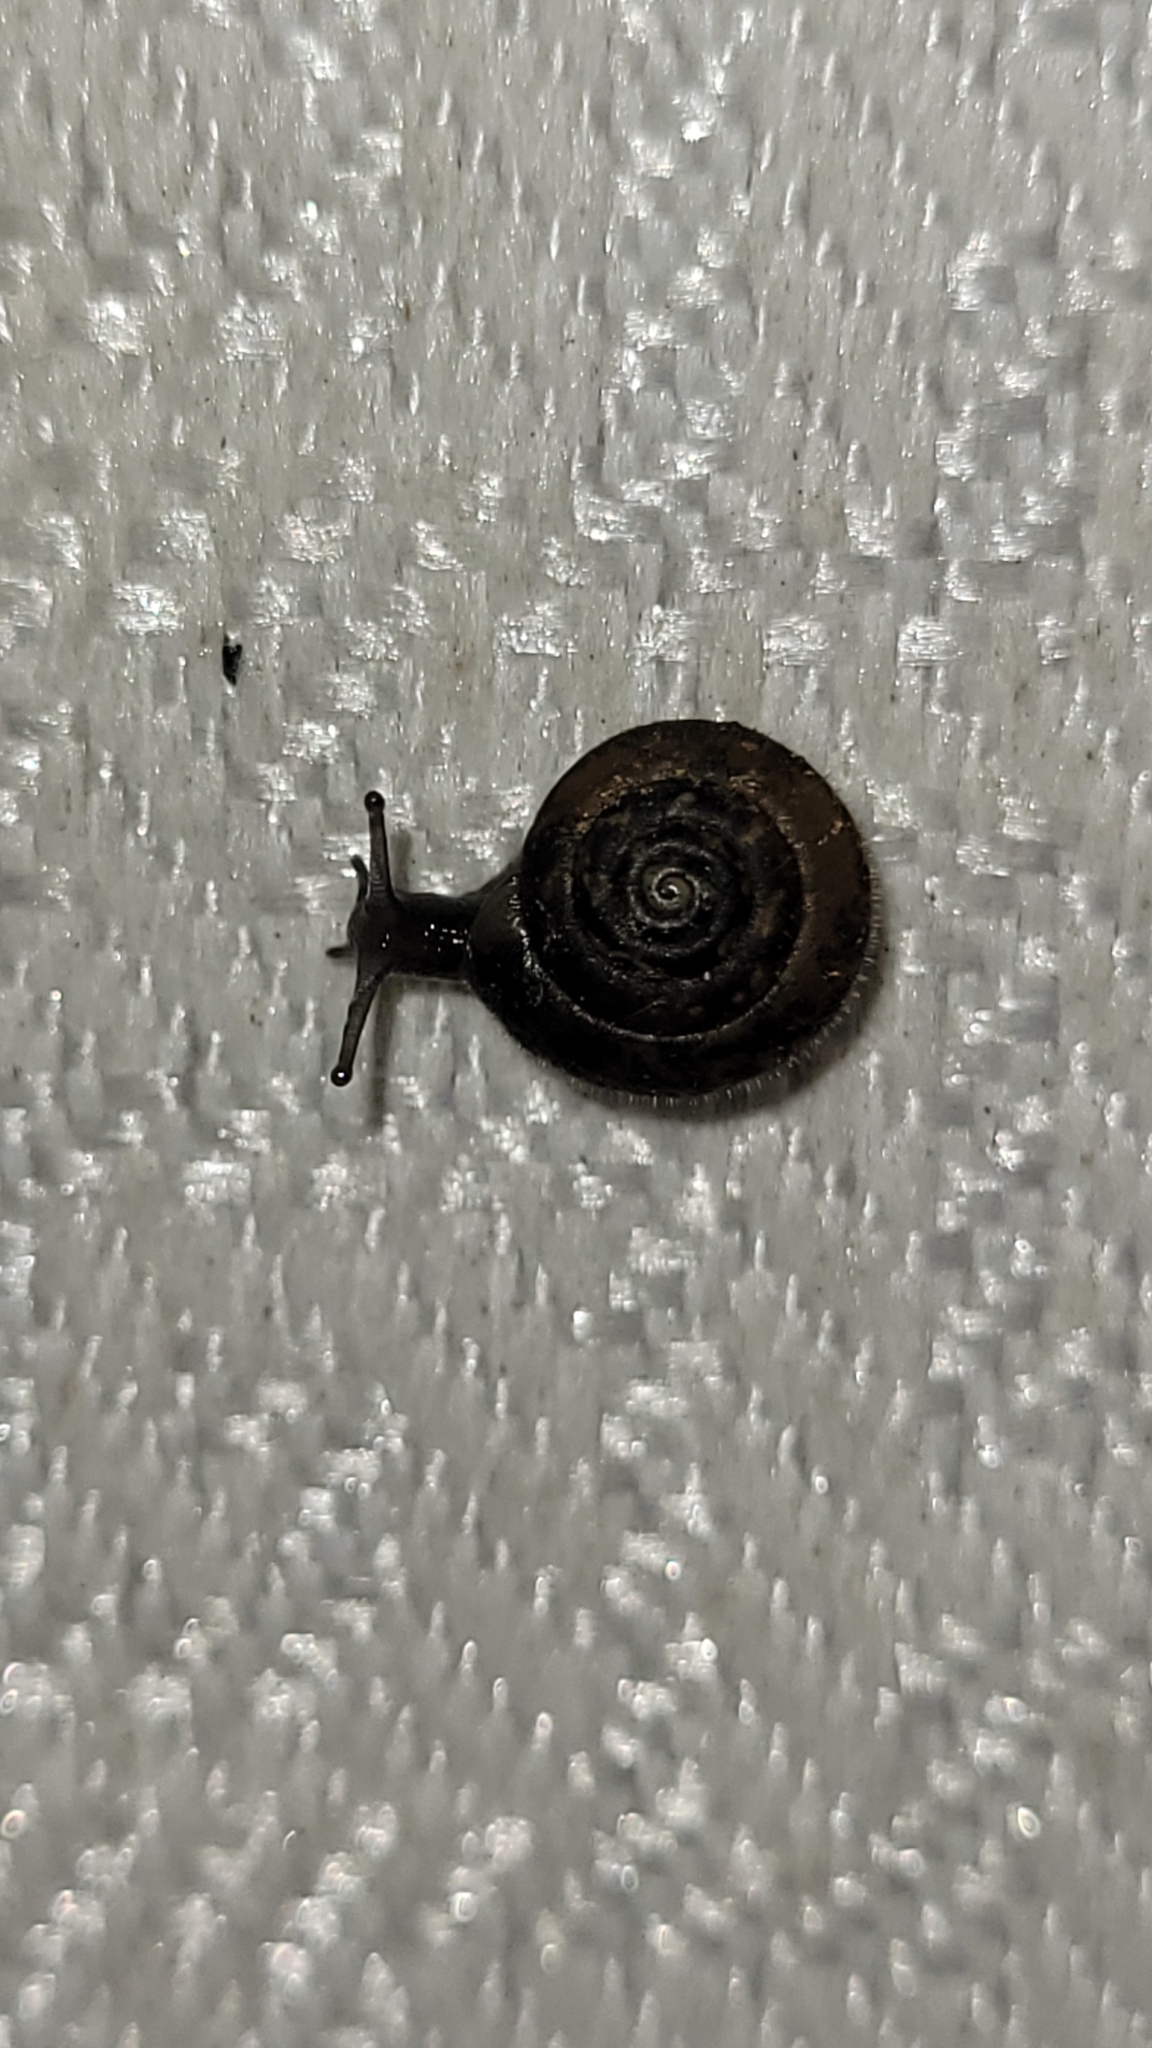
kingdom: Animalia
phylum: Mollusca
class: Gastropoda
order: Stylommatophora
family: Hygromiidae
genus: Trochulus
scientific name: Trochulus hispidus
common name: Hairy snail
